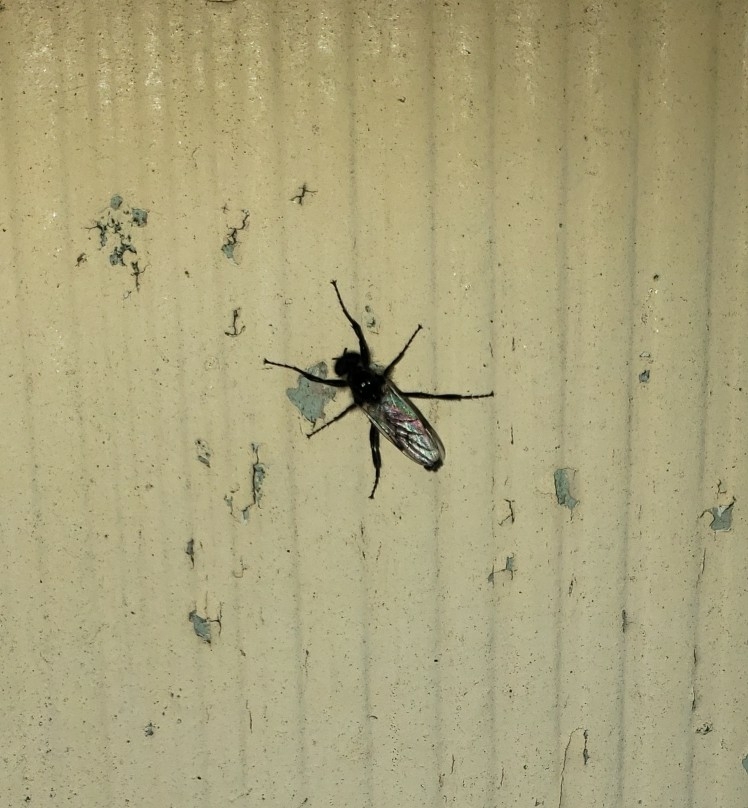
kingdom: Animalia
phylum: Arthropoda
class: Insecta
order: Diptera
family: Bibionidae
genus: Bibio
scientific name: Bibio albipennis
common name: White-winged march fly
